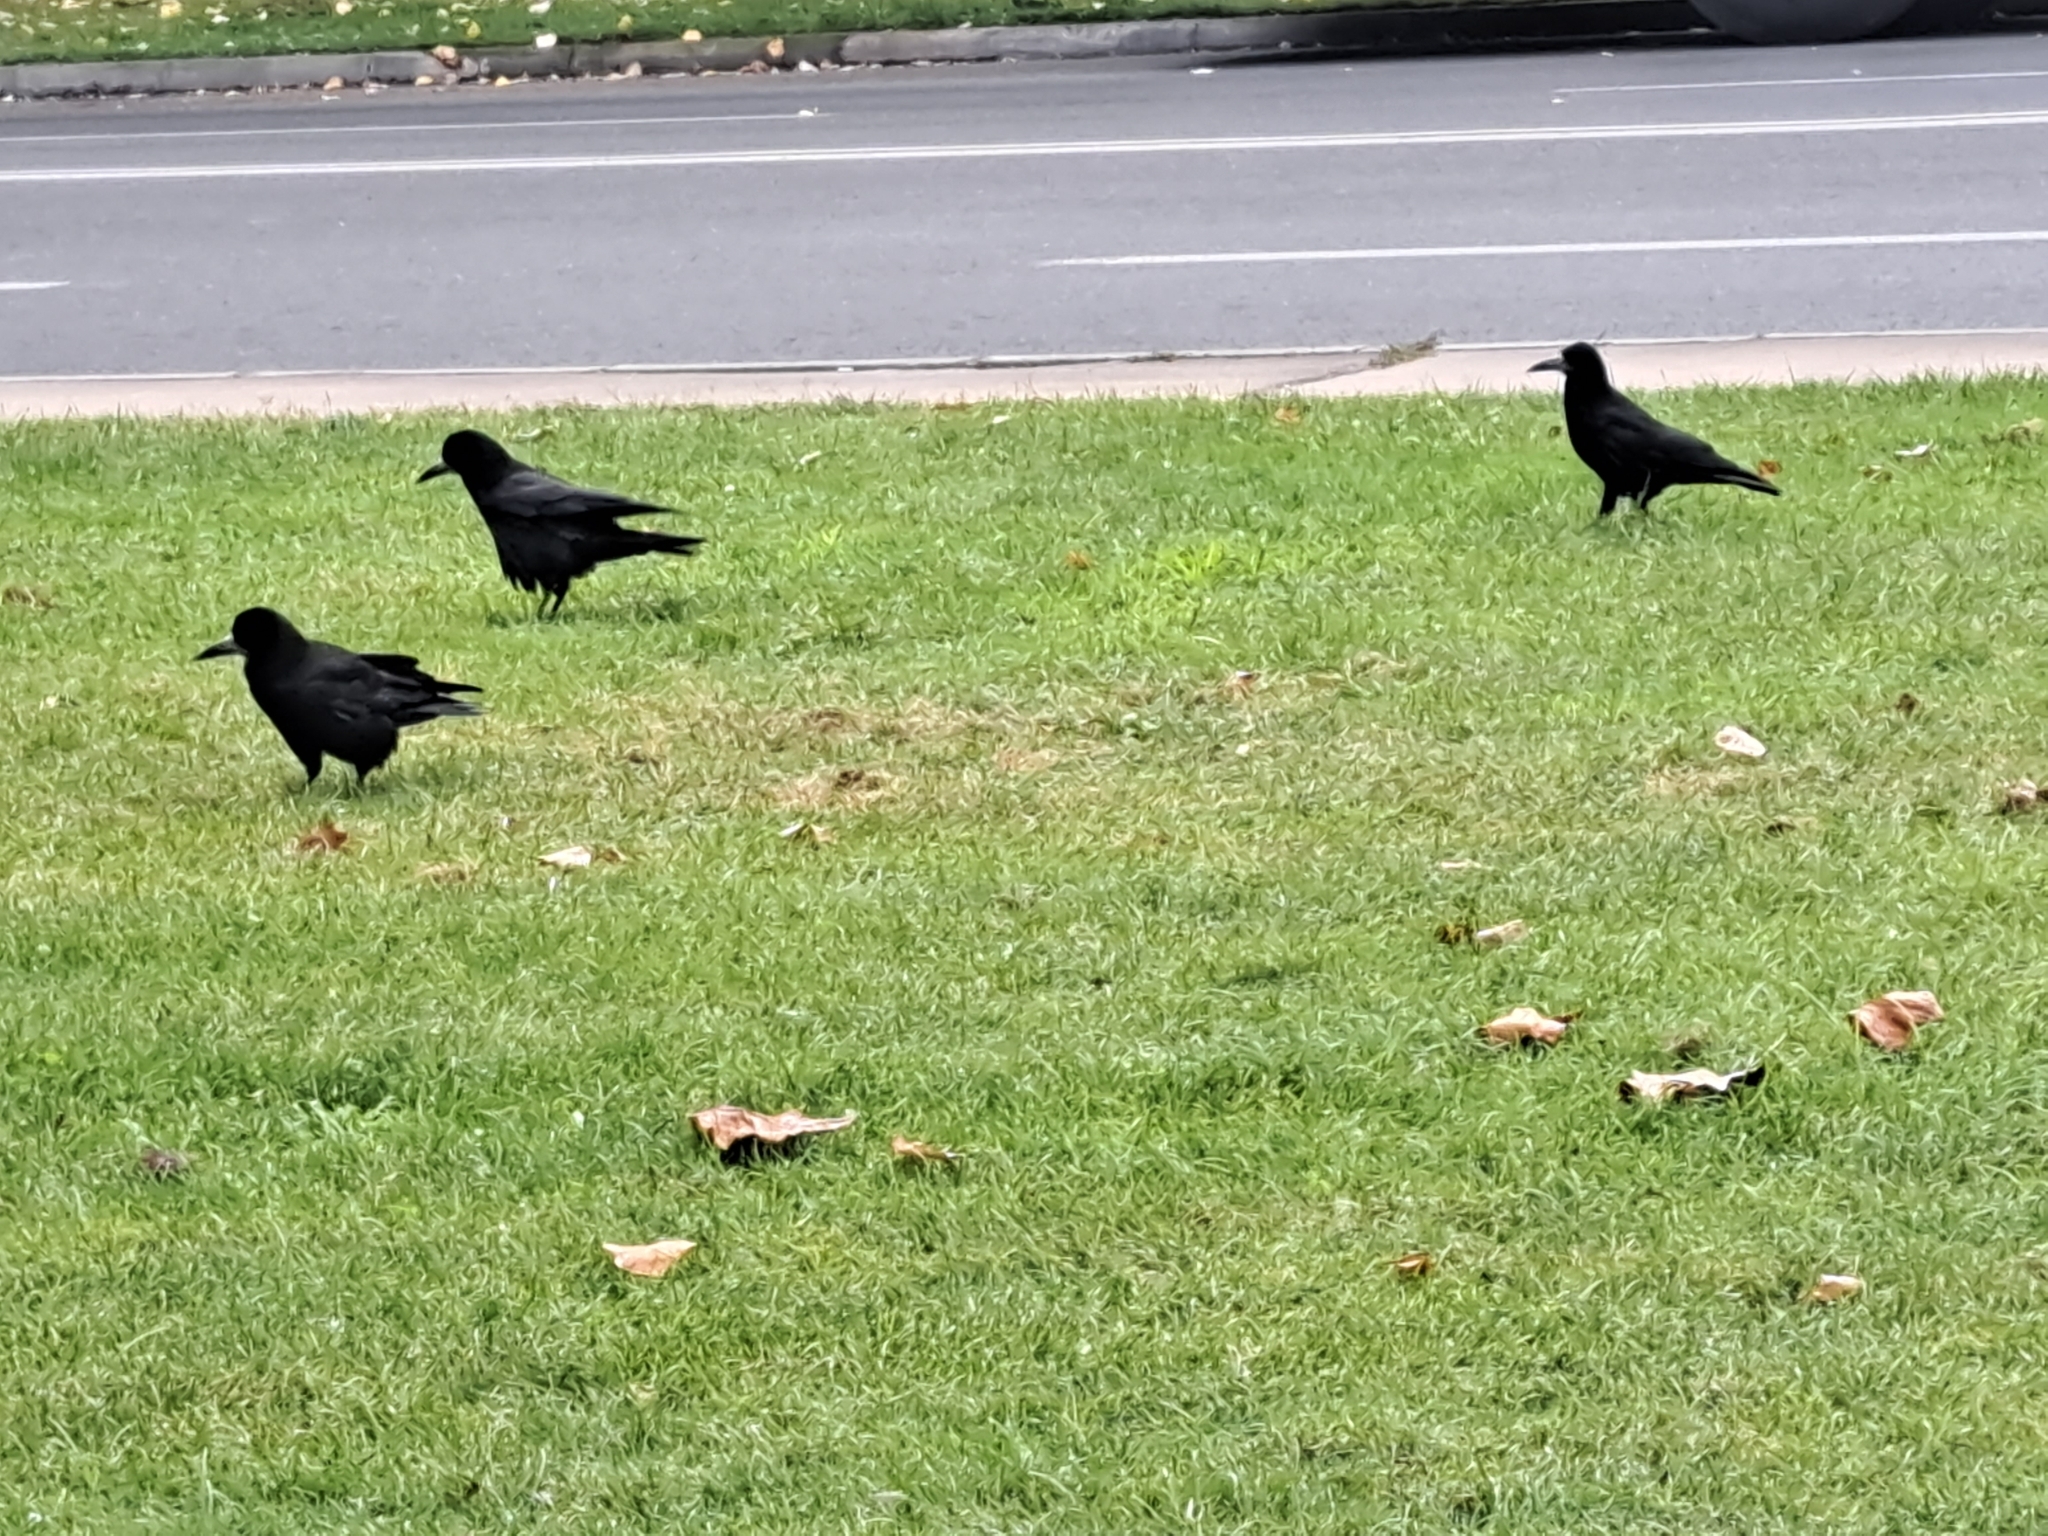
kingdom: Animalia
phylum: Chordata
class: Aves
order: Passeriformes
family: Corvidae
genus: Corvus
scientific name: Corvus frugilegus
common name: Rook
